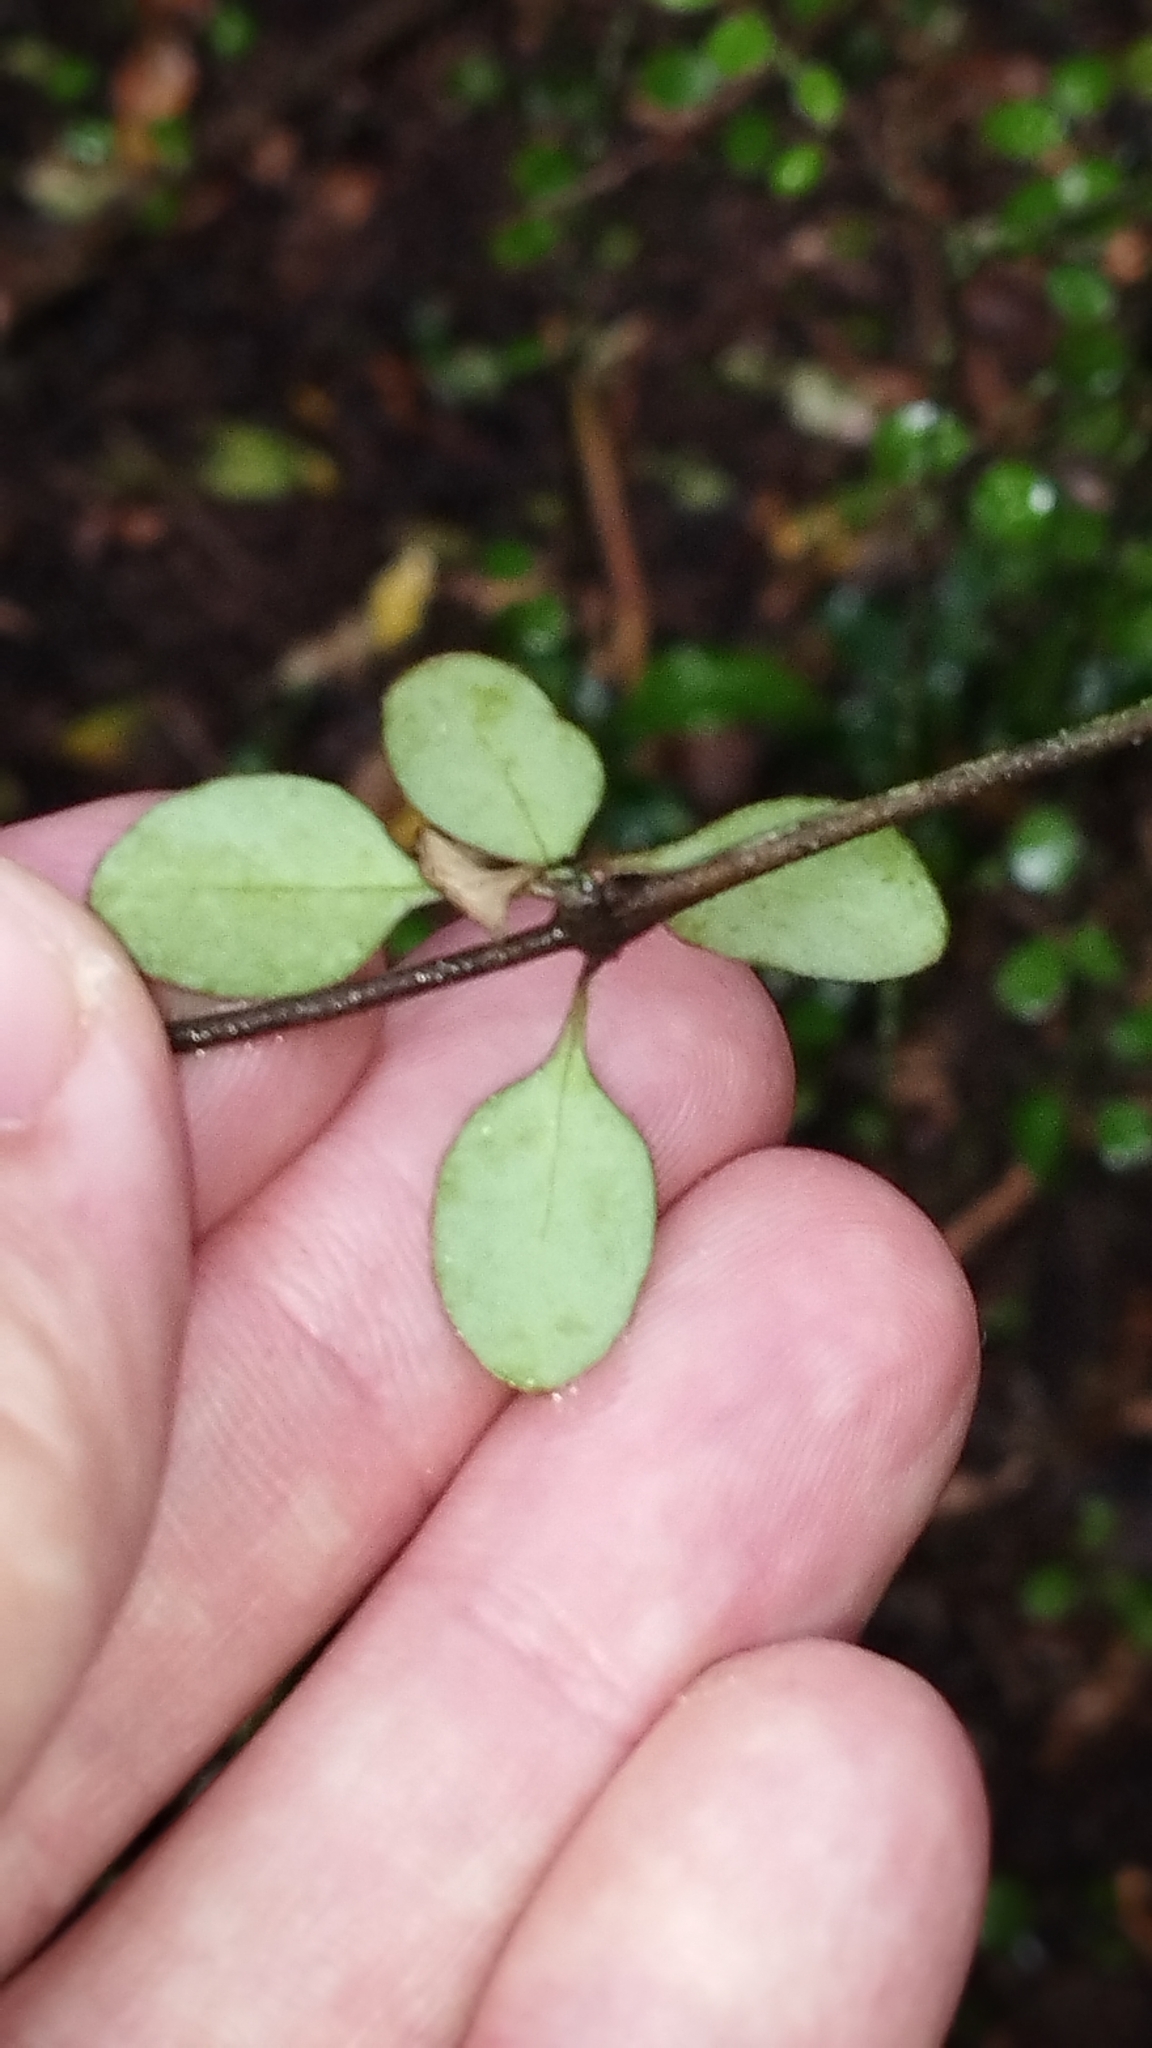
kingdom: Plantae
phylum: Tracheophyta
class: Magnoliopsida
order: Gentianales
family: Rubiaceae
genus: Coprosma
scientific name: Coprosma crassifolia
